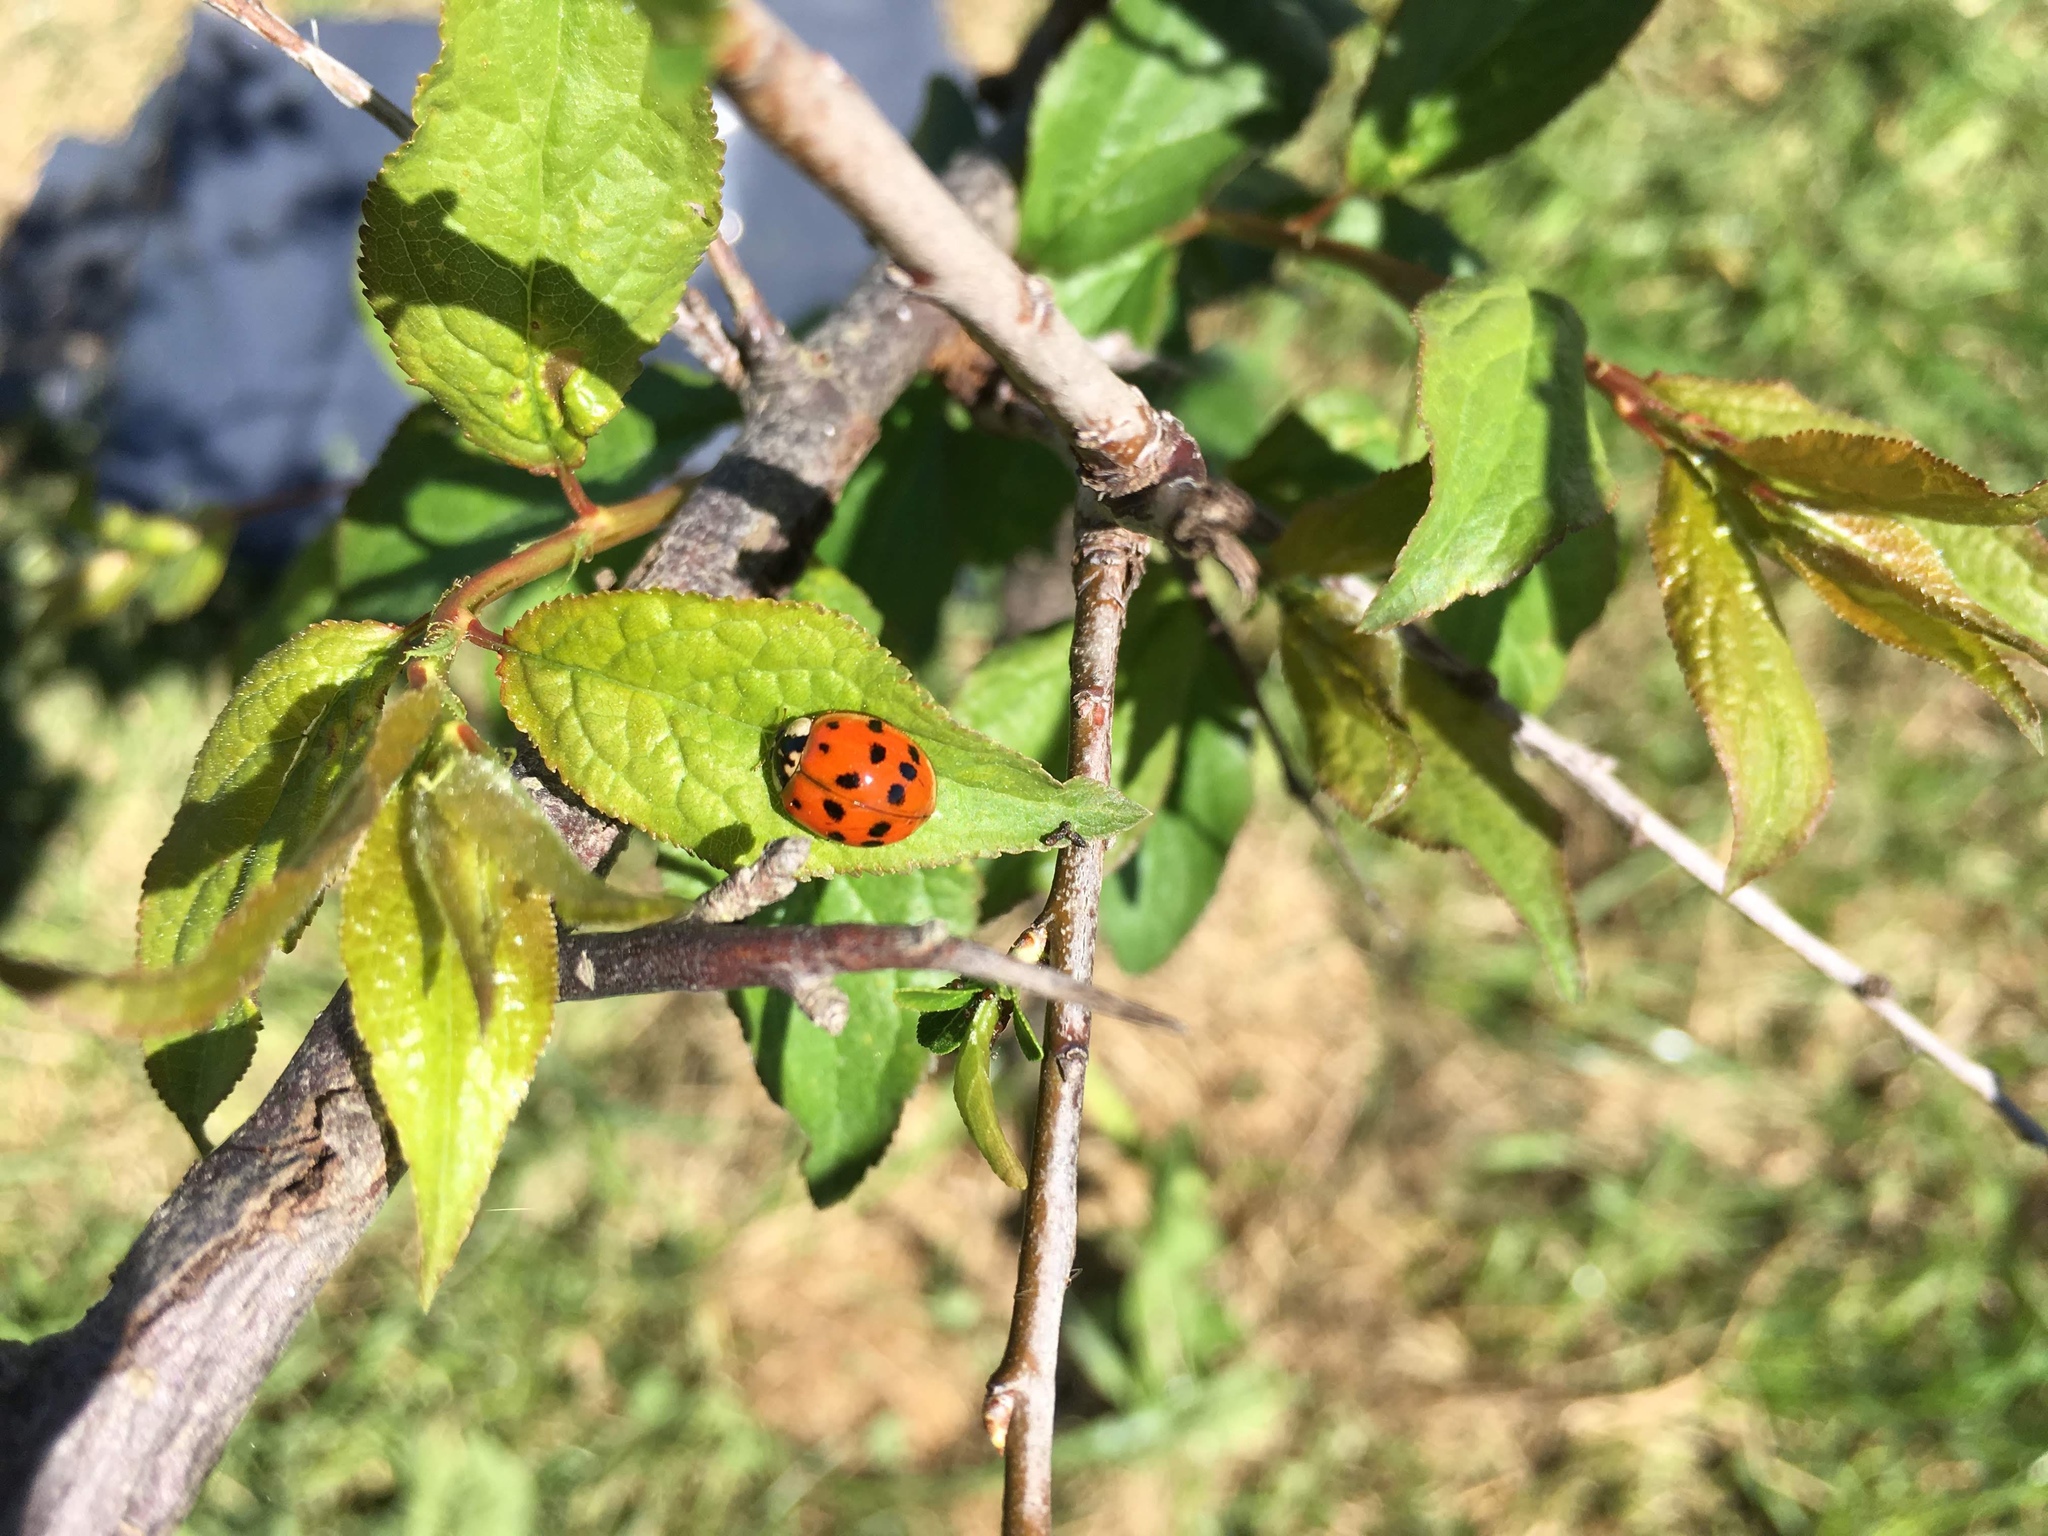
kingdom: Animalia
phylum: Arthropoda
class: Insecta
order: Coleoptera
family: Coccinellidae
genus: Harmonia
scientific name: Harmonia axyridis
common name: Harlequin ladybird
